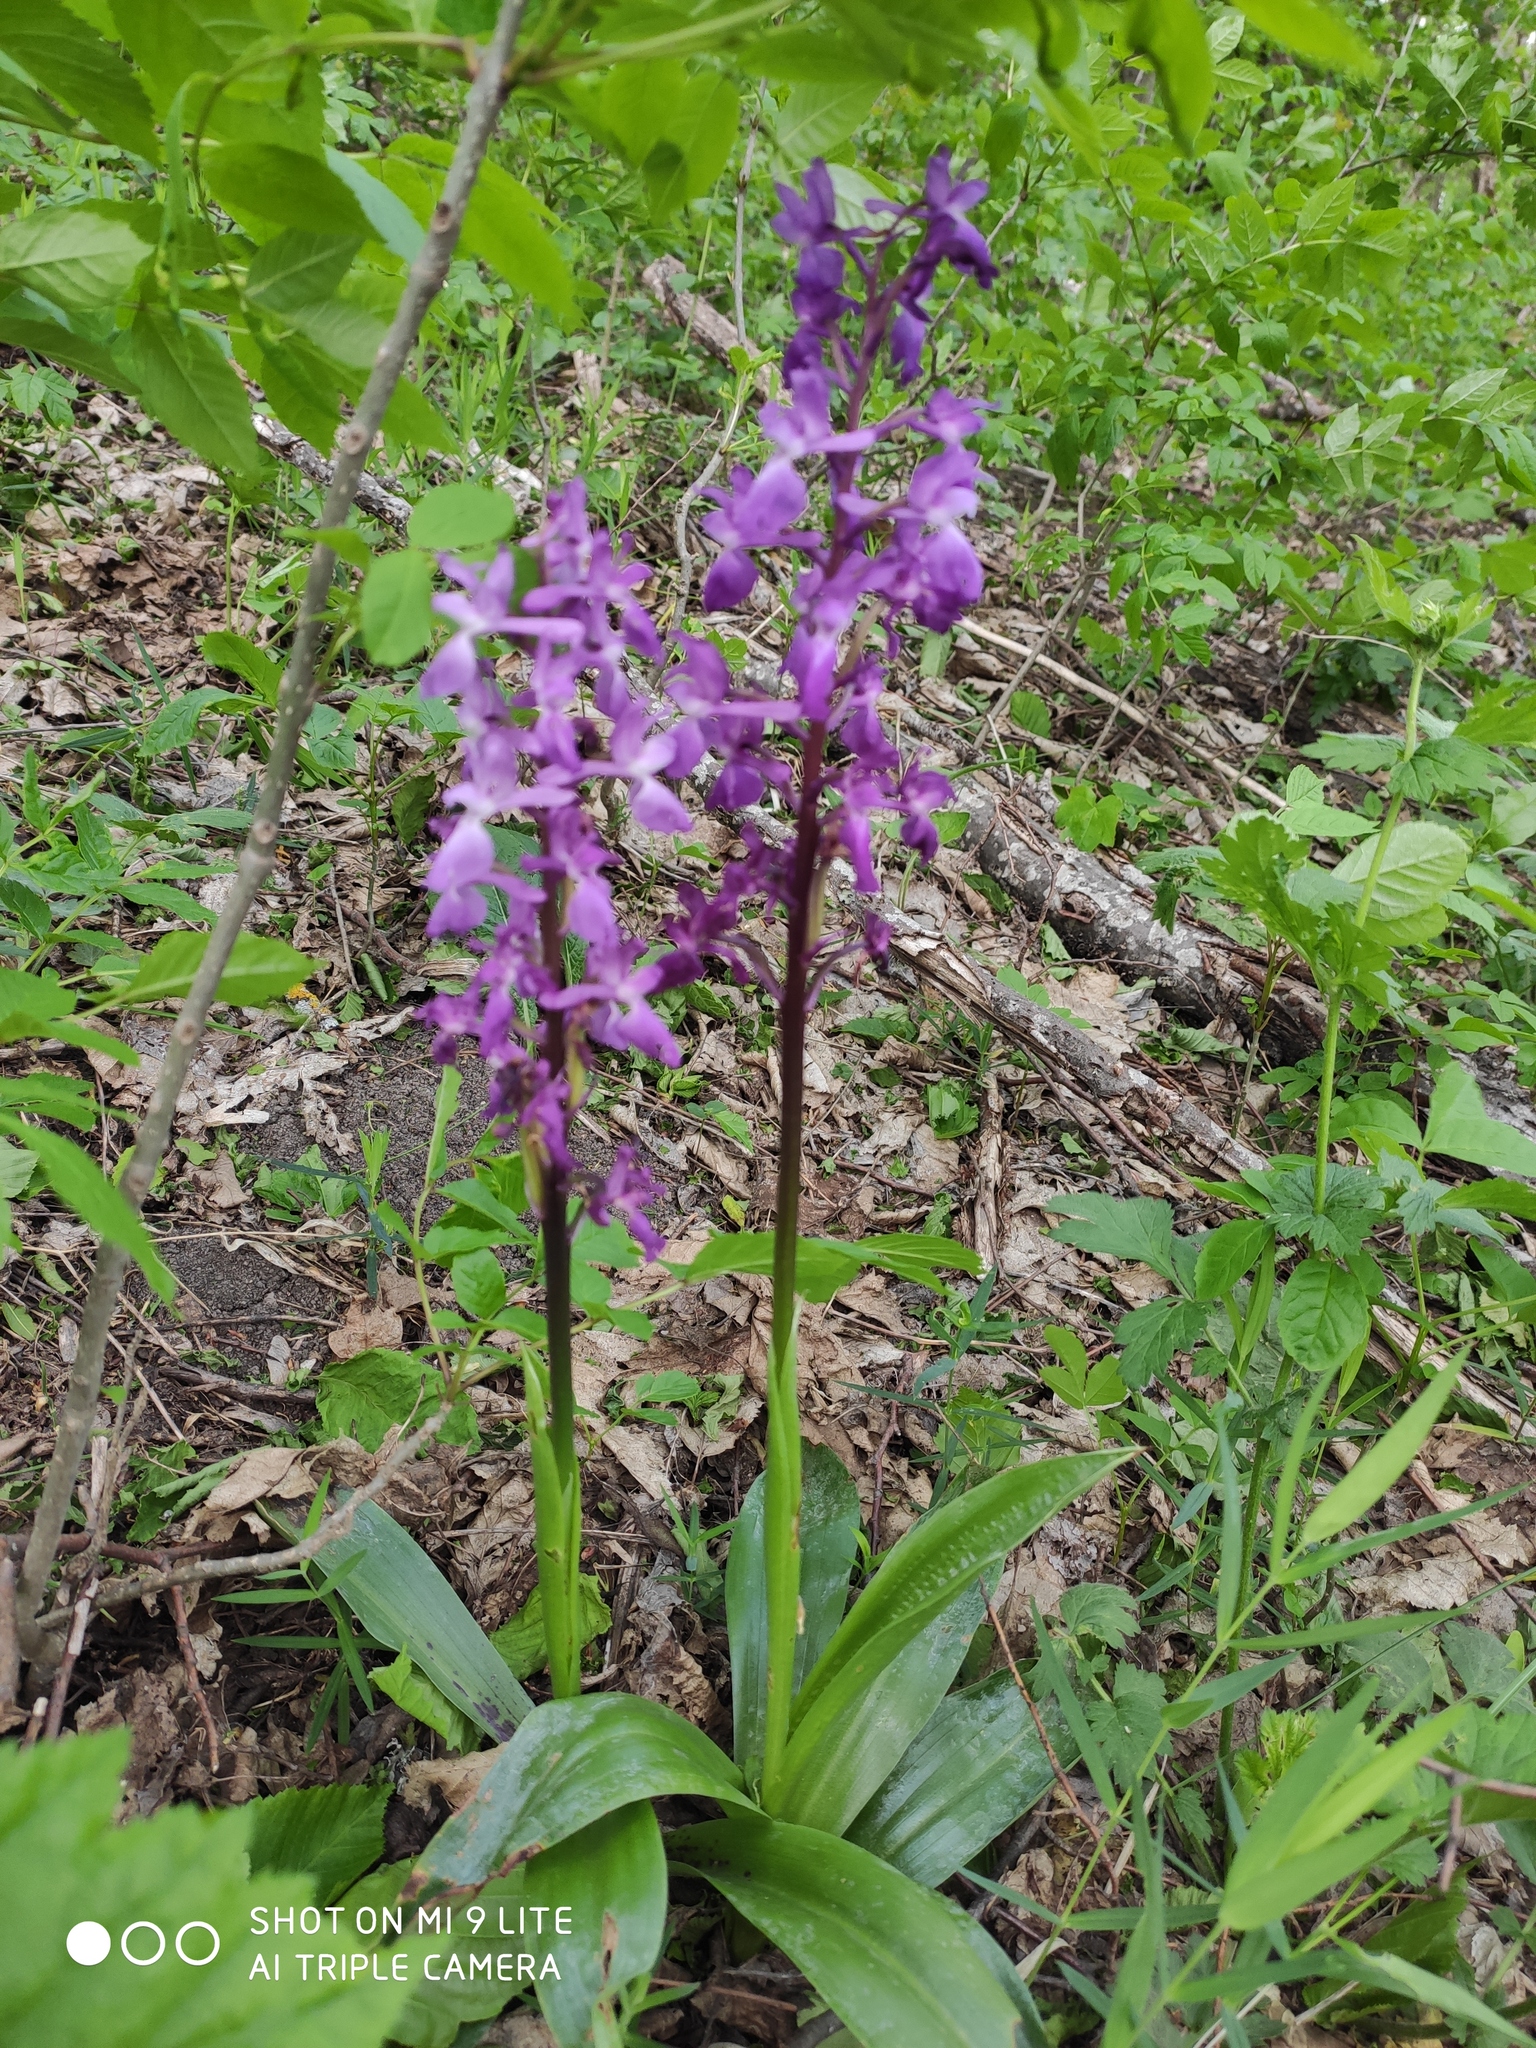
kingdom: Plantae
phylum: Tracheophyta
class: Liliopsida
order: Asparagales
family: Orchidaceae
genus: Orchis
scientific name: Orchis mascula
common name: Early-purple orchid
